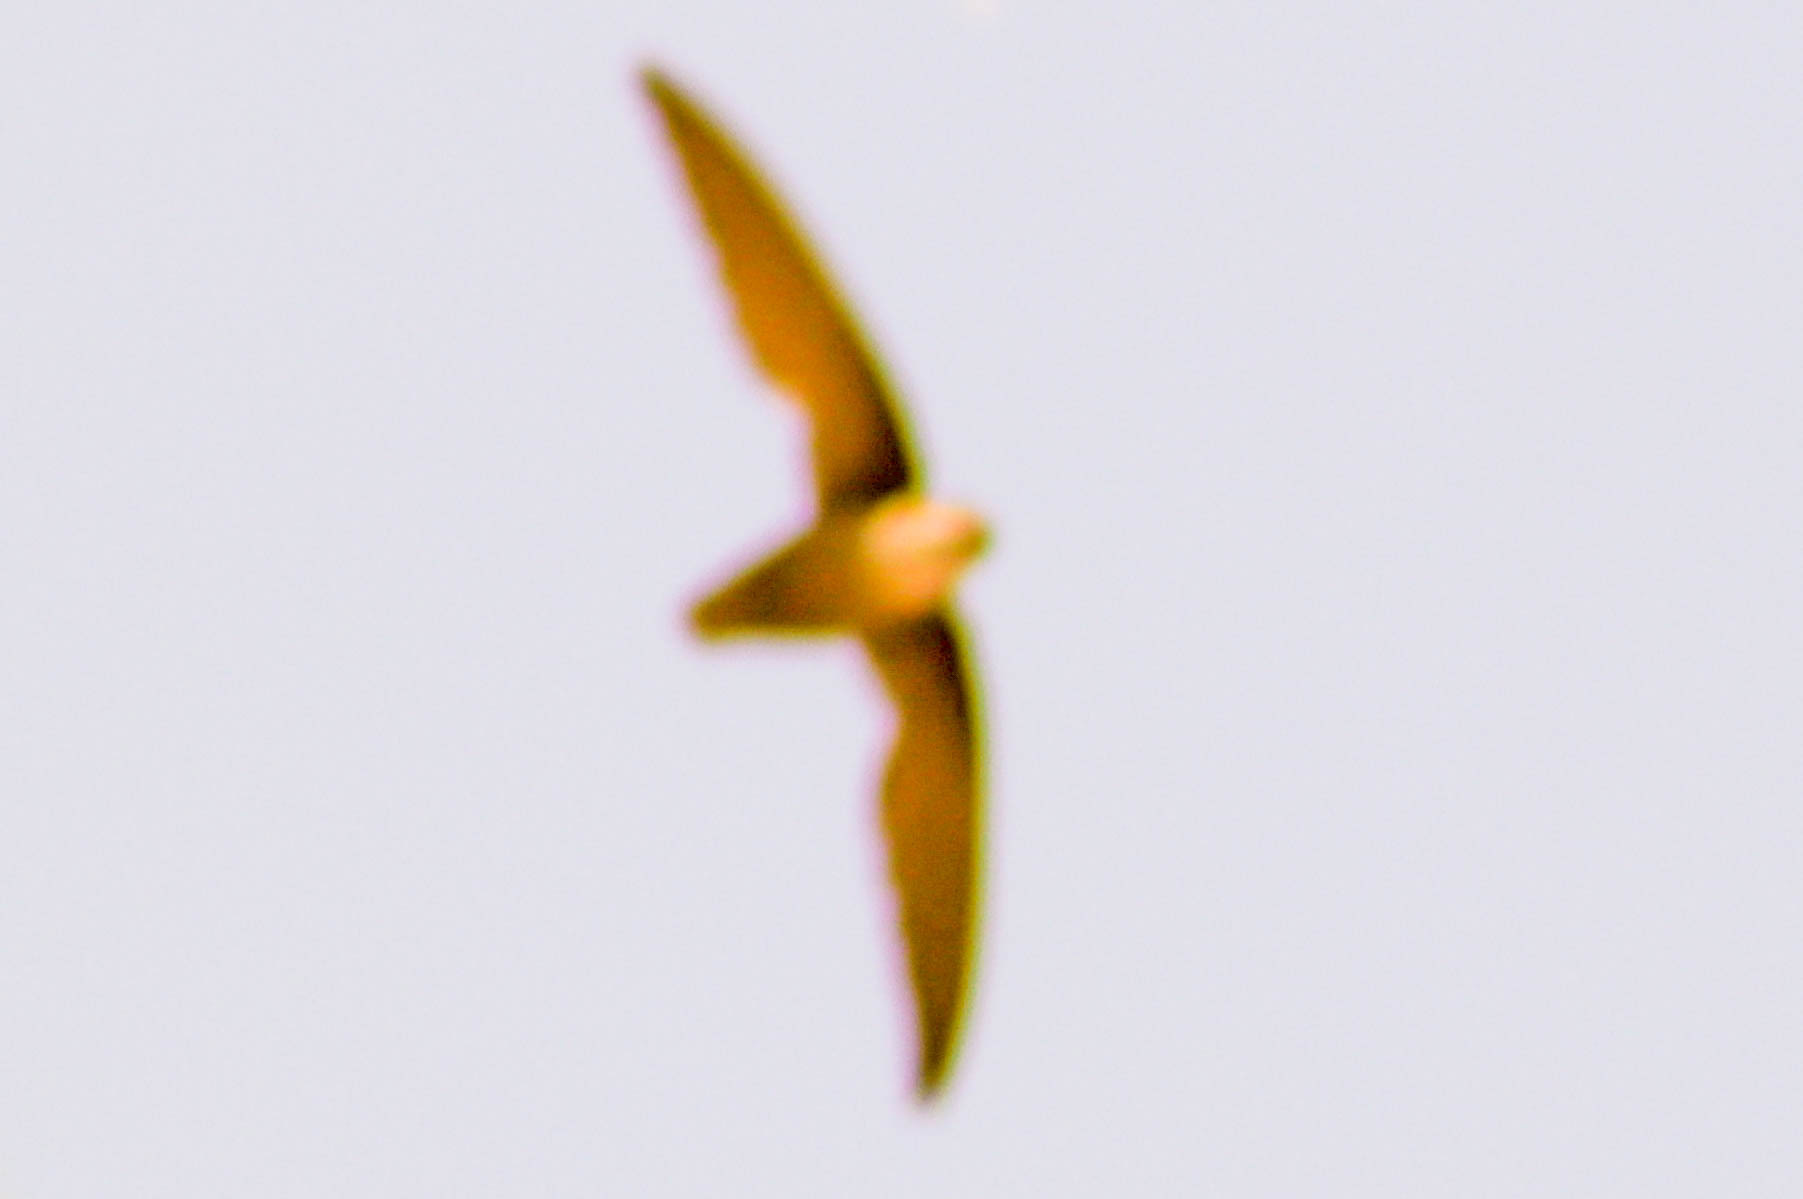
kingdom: Animalia
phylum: Chordata
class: Aves
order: Apodiformes
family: Apodidae
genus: Chaetura
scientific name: Chaetura pelagica
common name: Chimney swift
